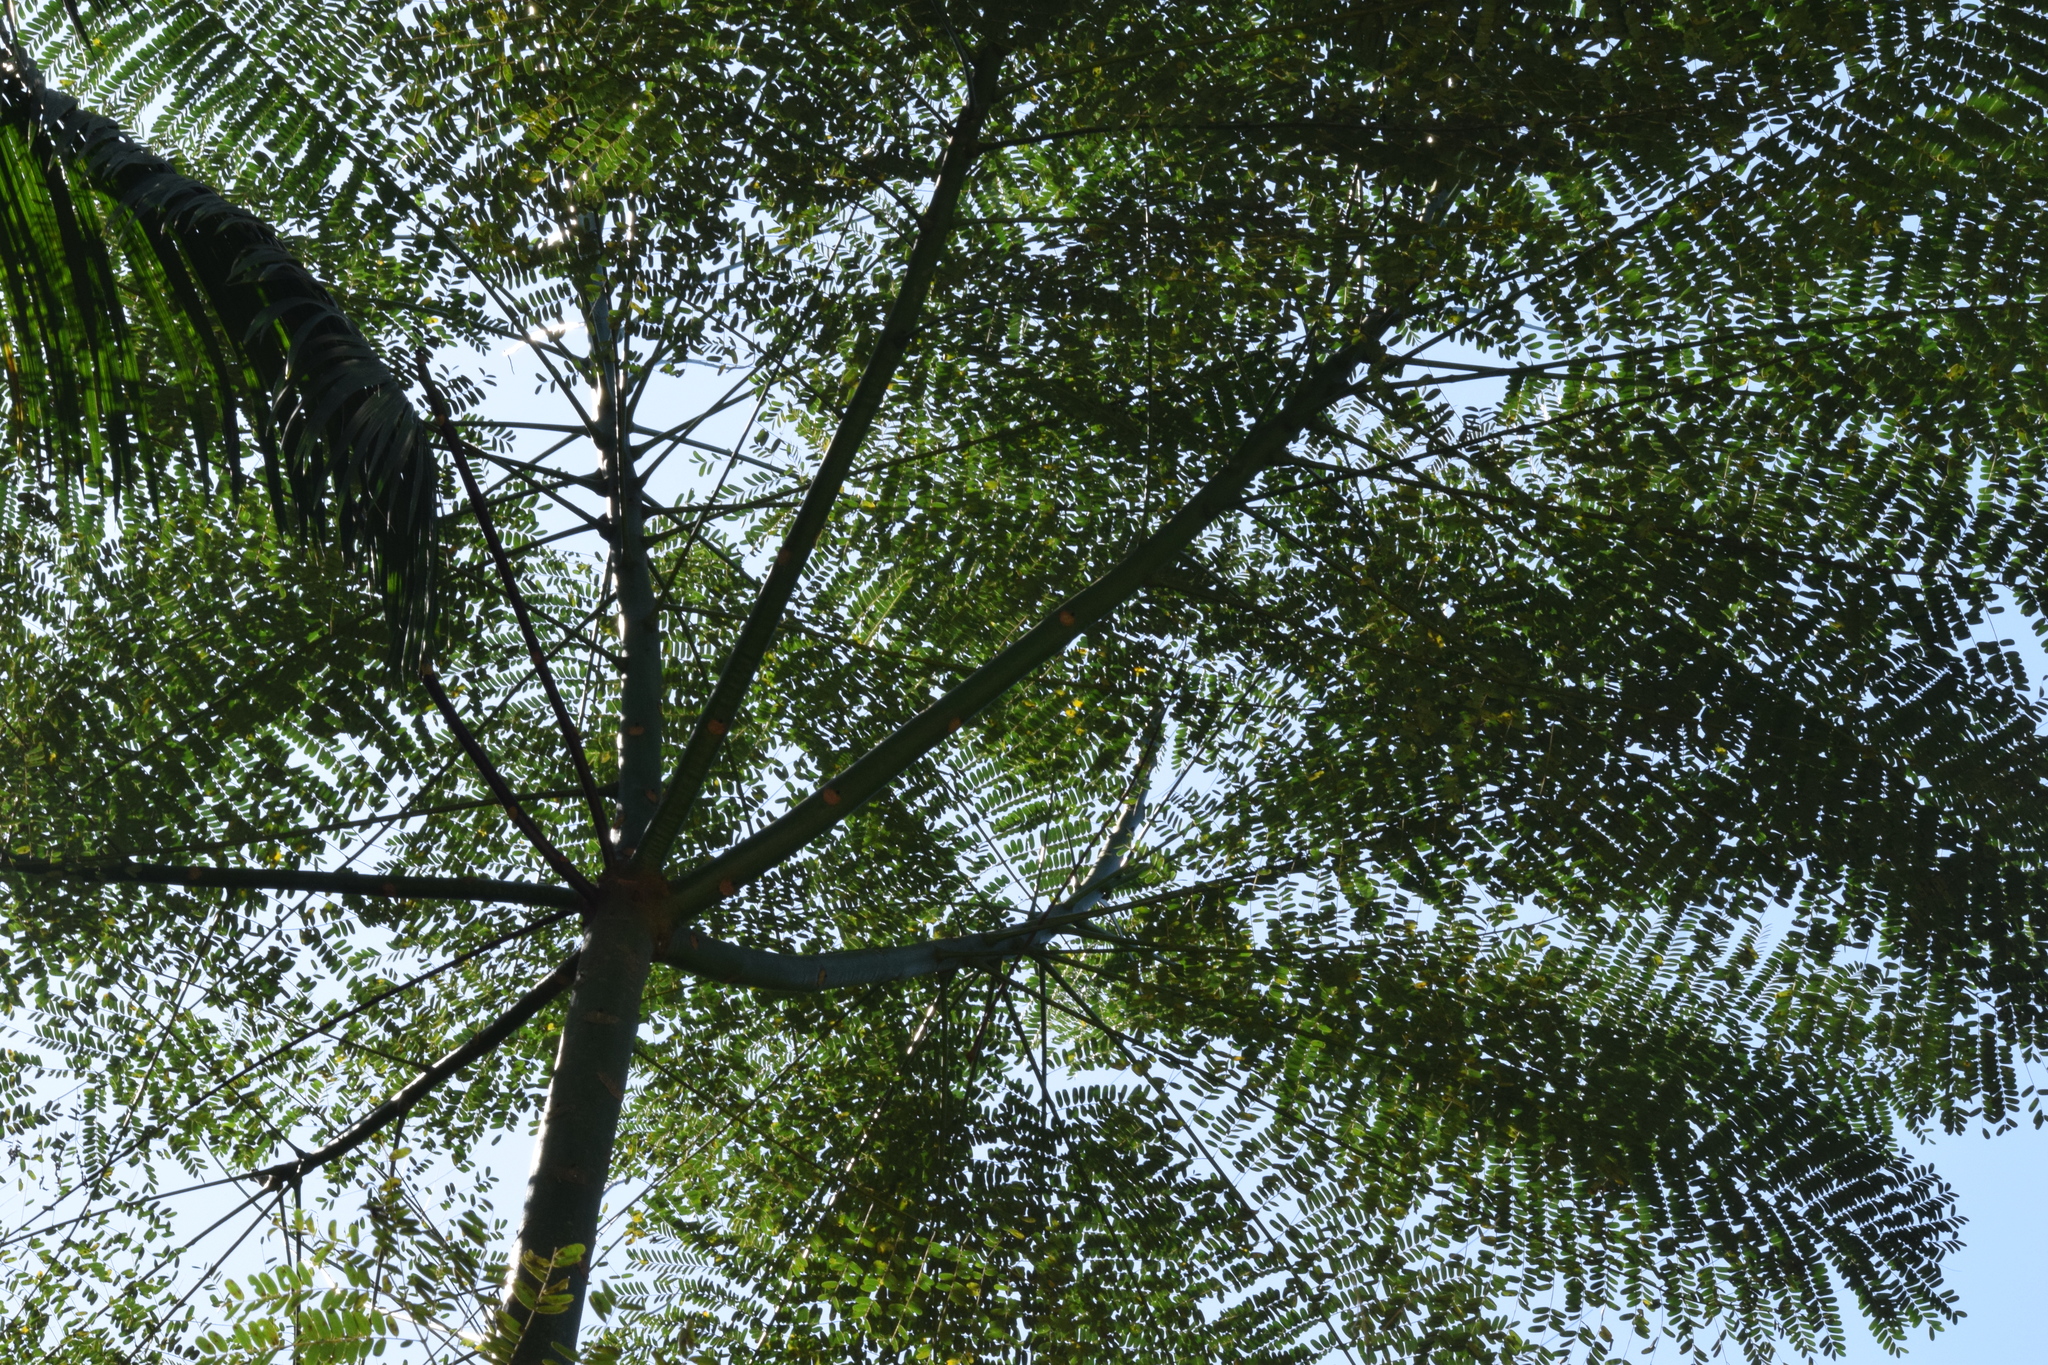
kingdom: Plantae
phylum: Tracheophyta
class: Magnoliopsida
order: Fabales
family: Fabaceae
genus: Schizolobium
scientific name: Schizolobium parahyba
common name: Brazilian firetree
